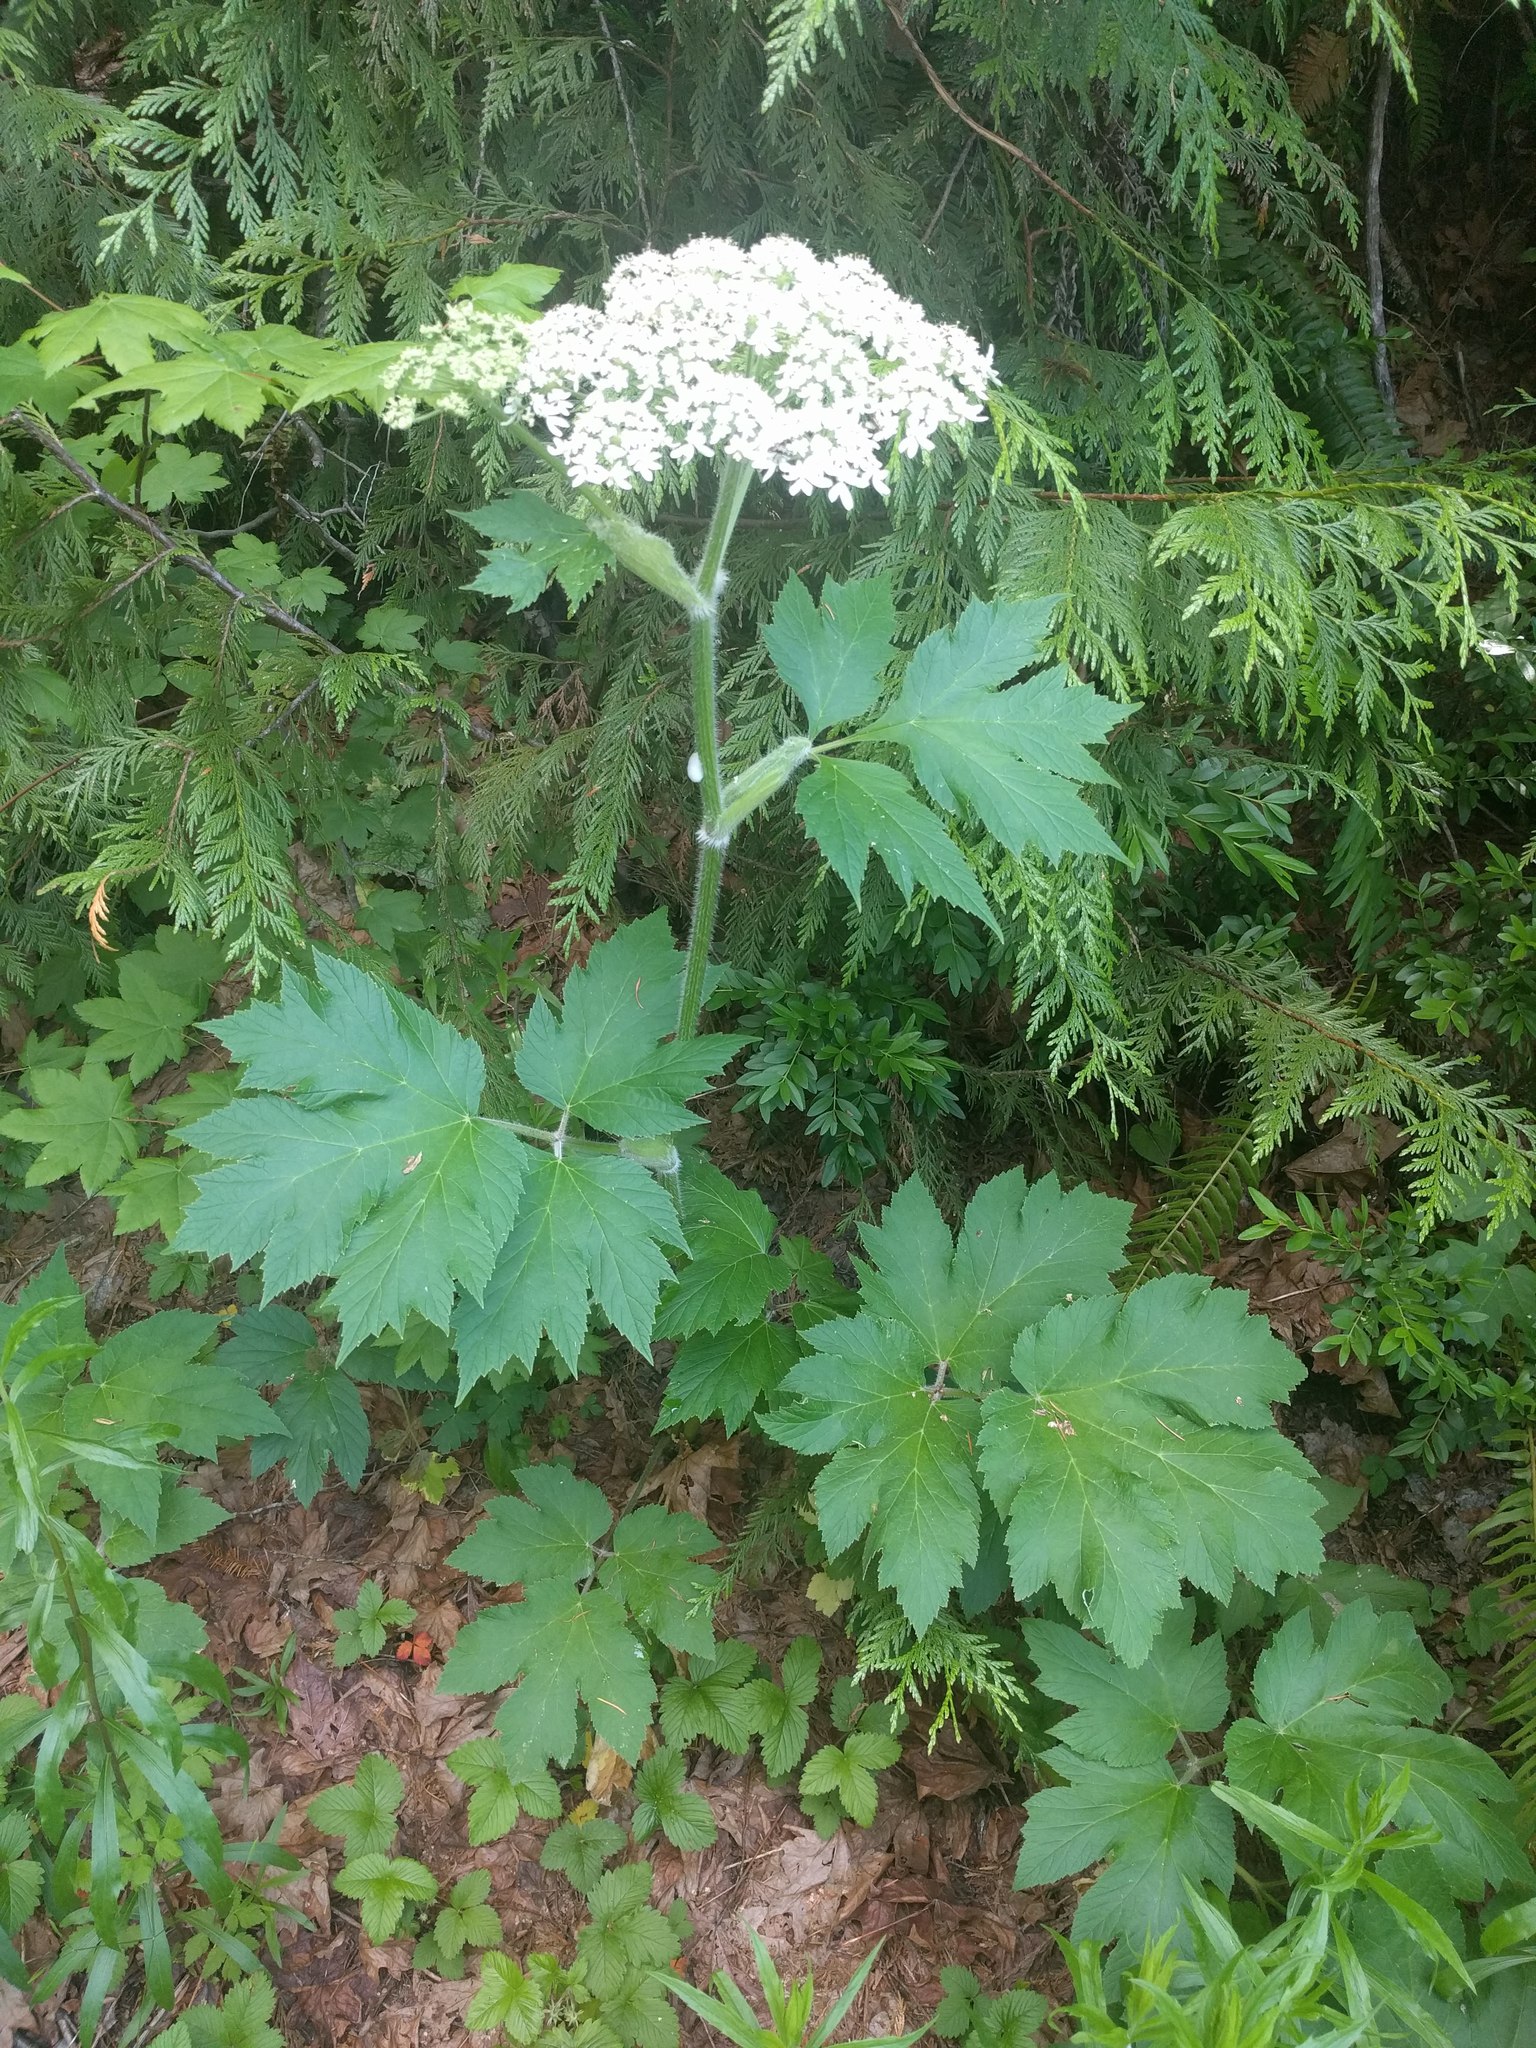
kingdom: Plantae
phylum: Tracheophyta
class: Magnoliopsida
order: Apiales
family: Apiaceae
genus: Heracleum
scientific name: Heracleum maximum
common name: American cow parsnip
